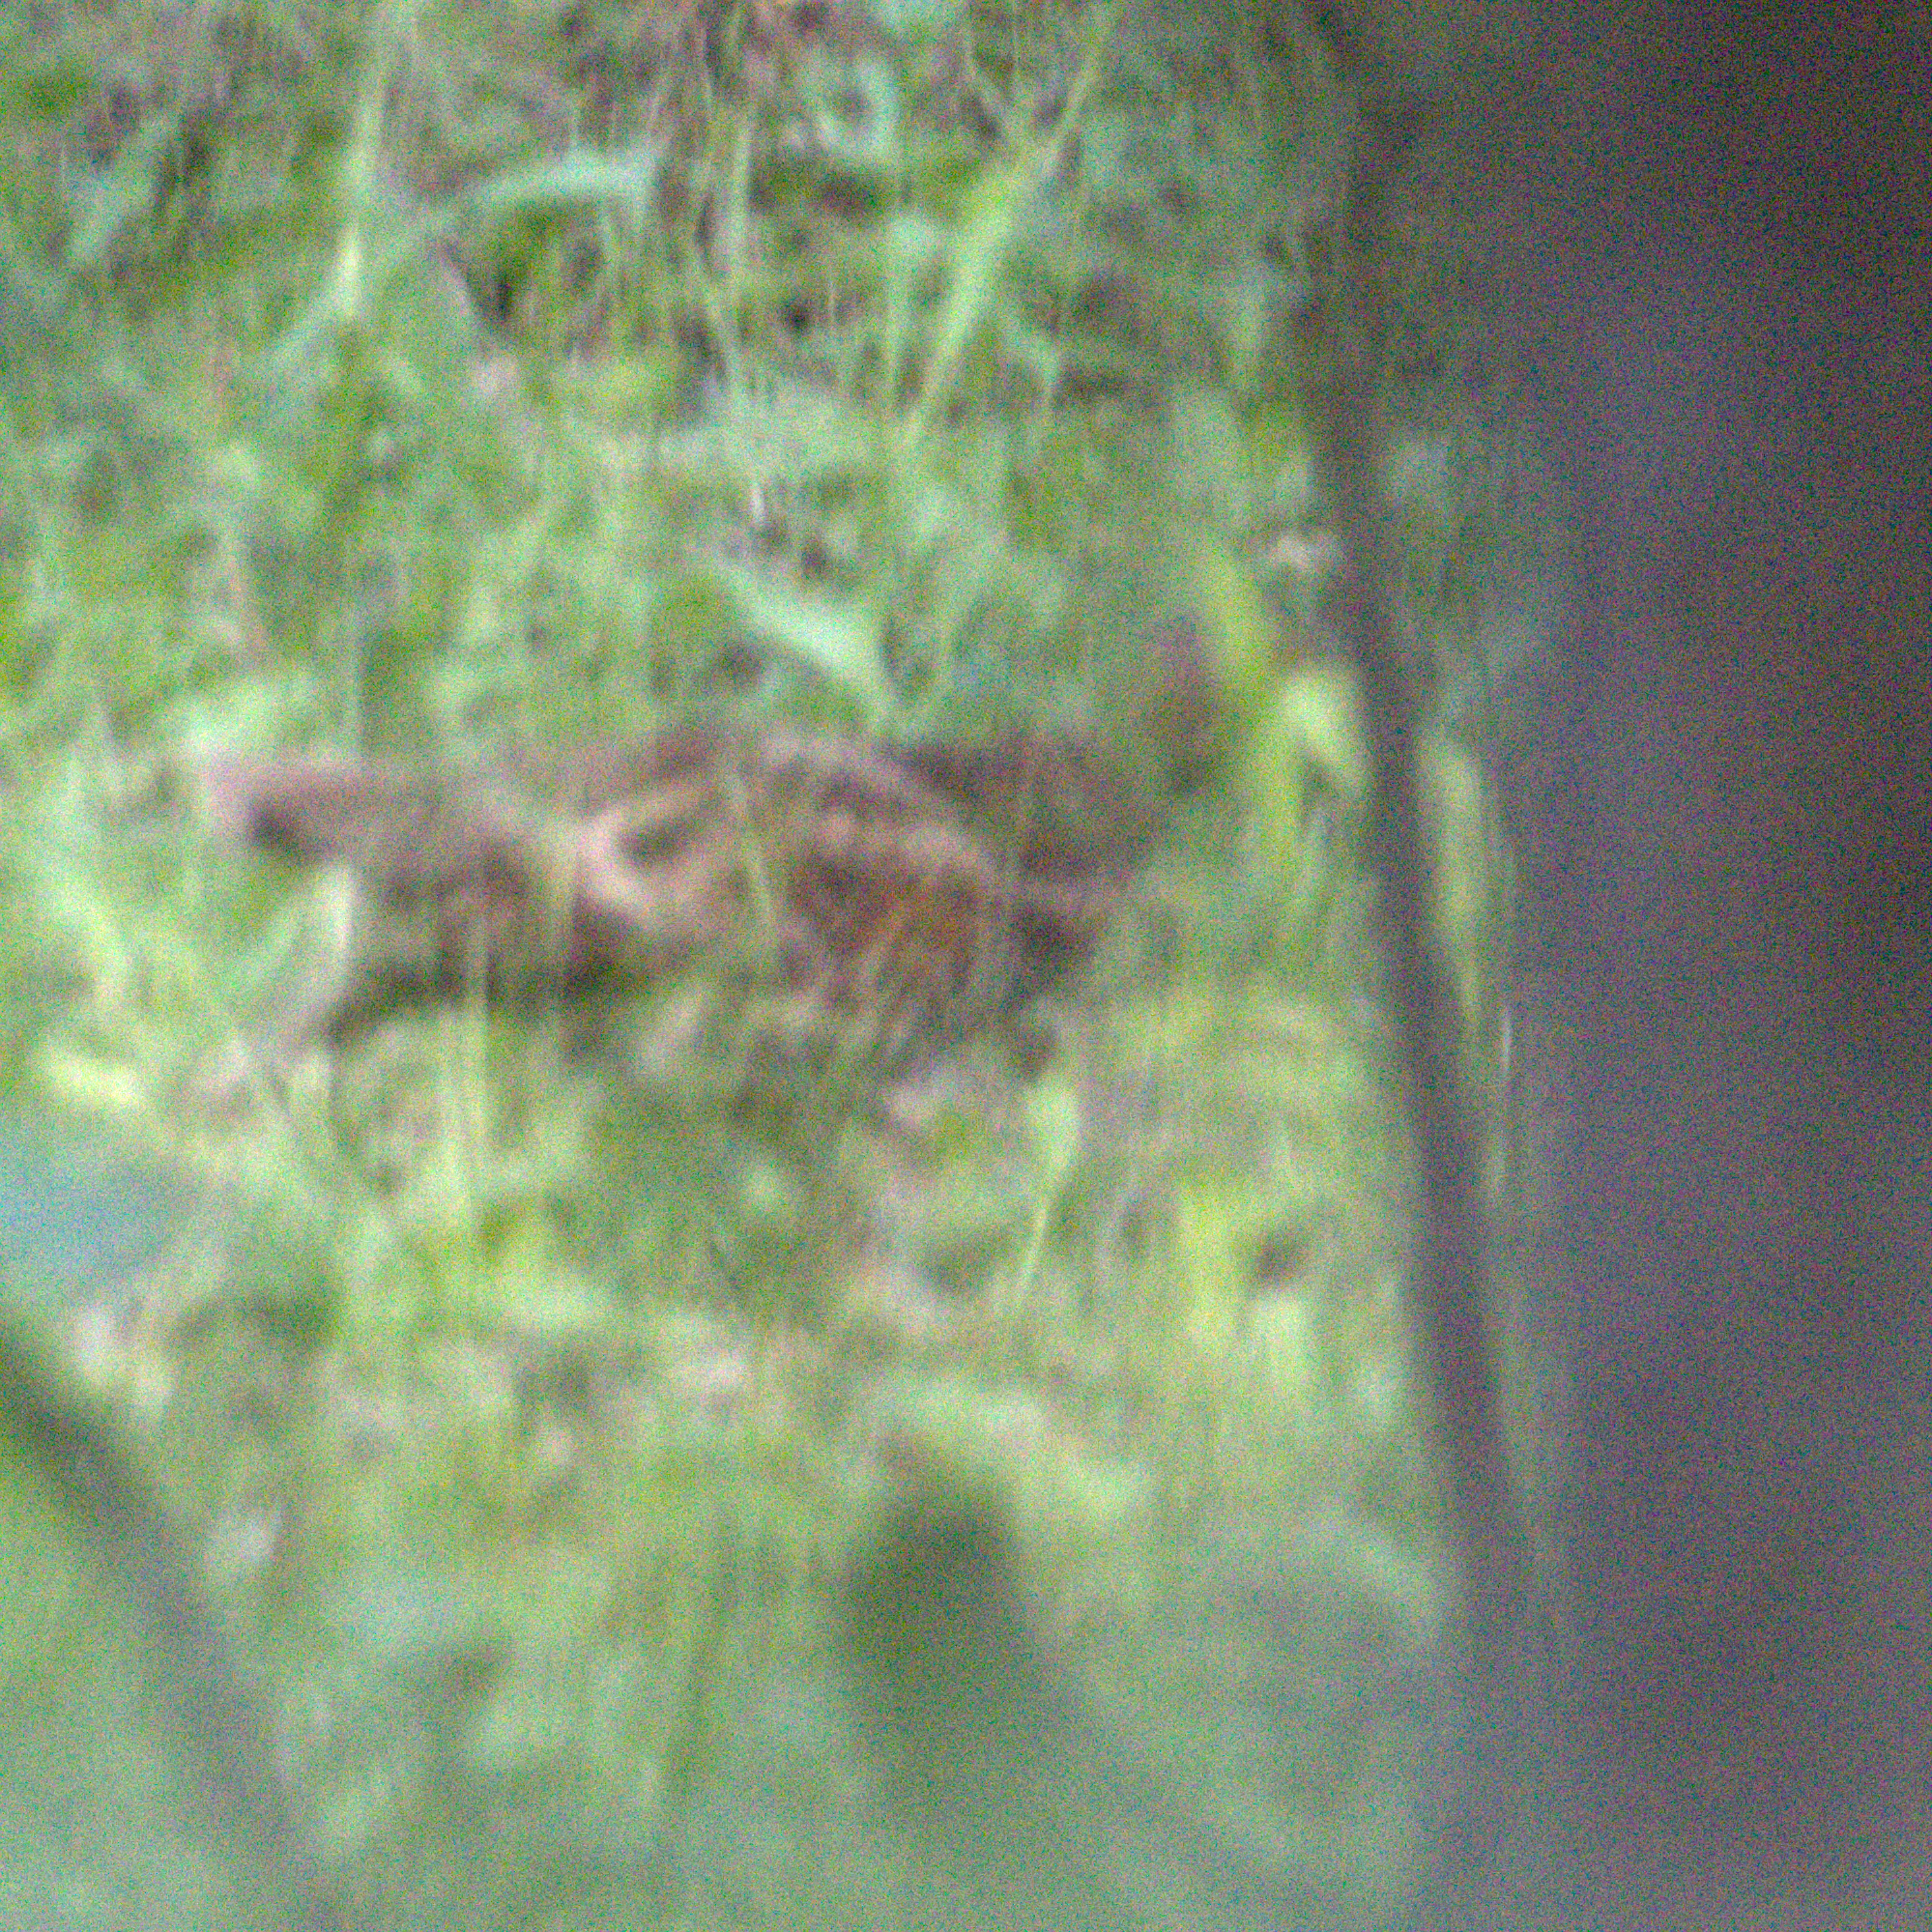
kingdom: Animalia
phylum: Chordata
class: Aves
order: Galliformes
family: Phasianidae
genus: Tetrastes
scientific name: Tetrastes bonasia
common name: Hazel grouse
